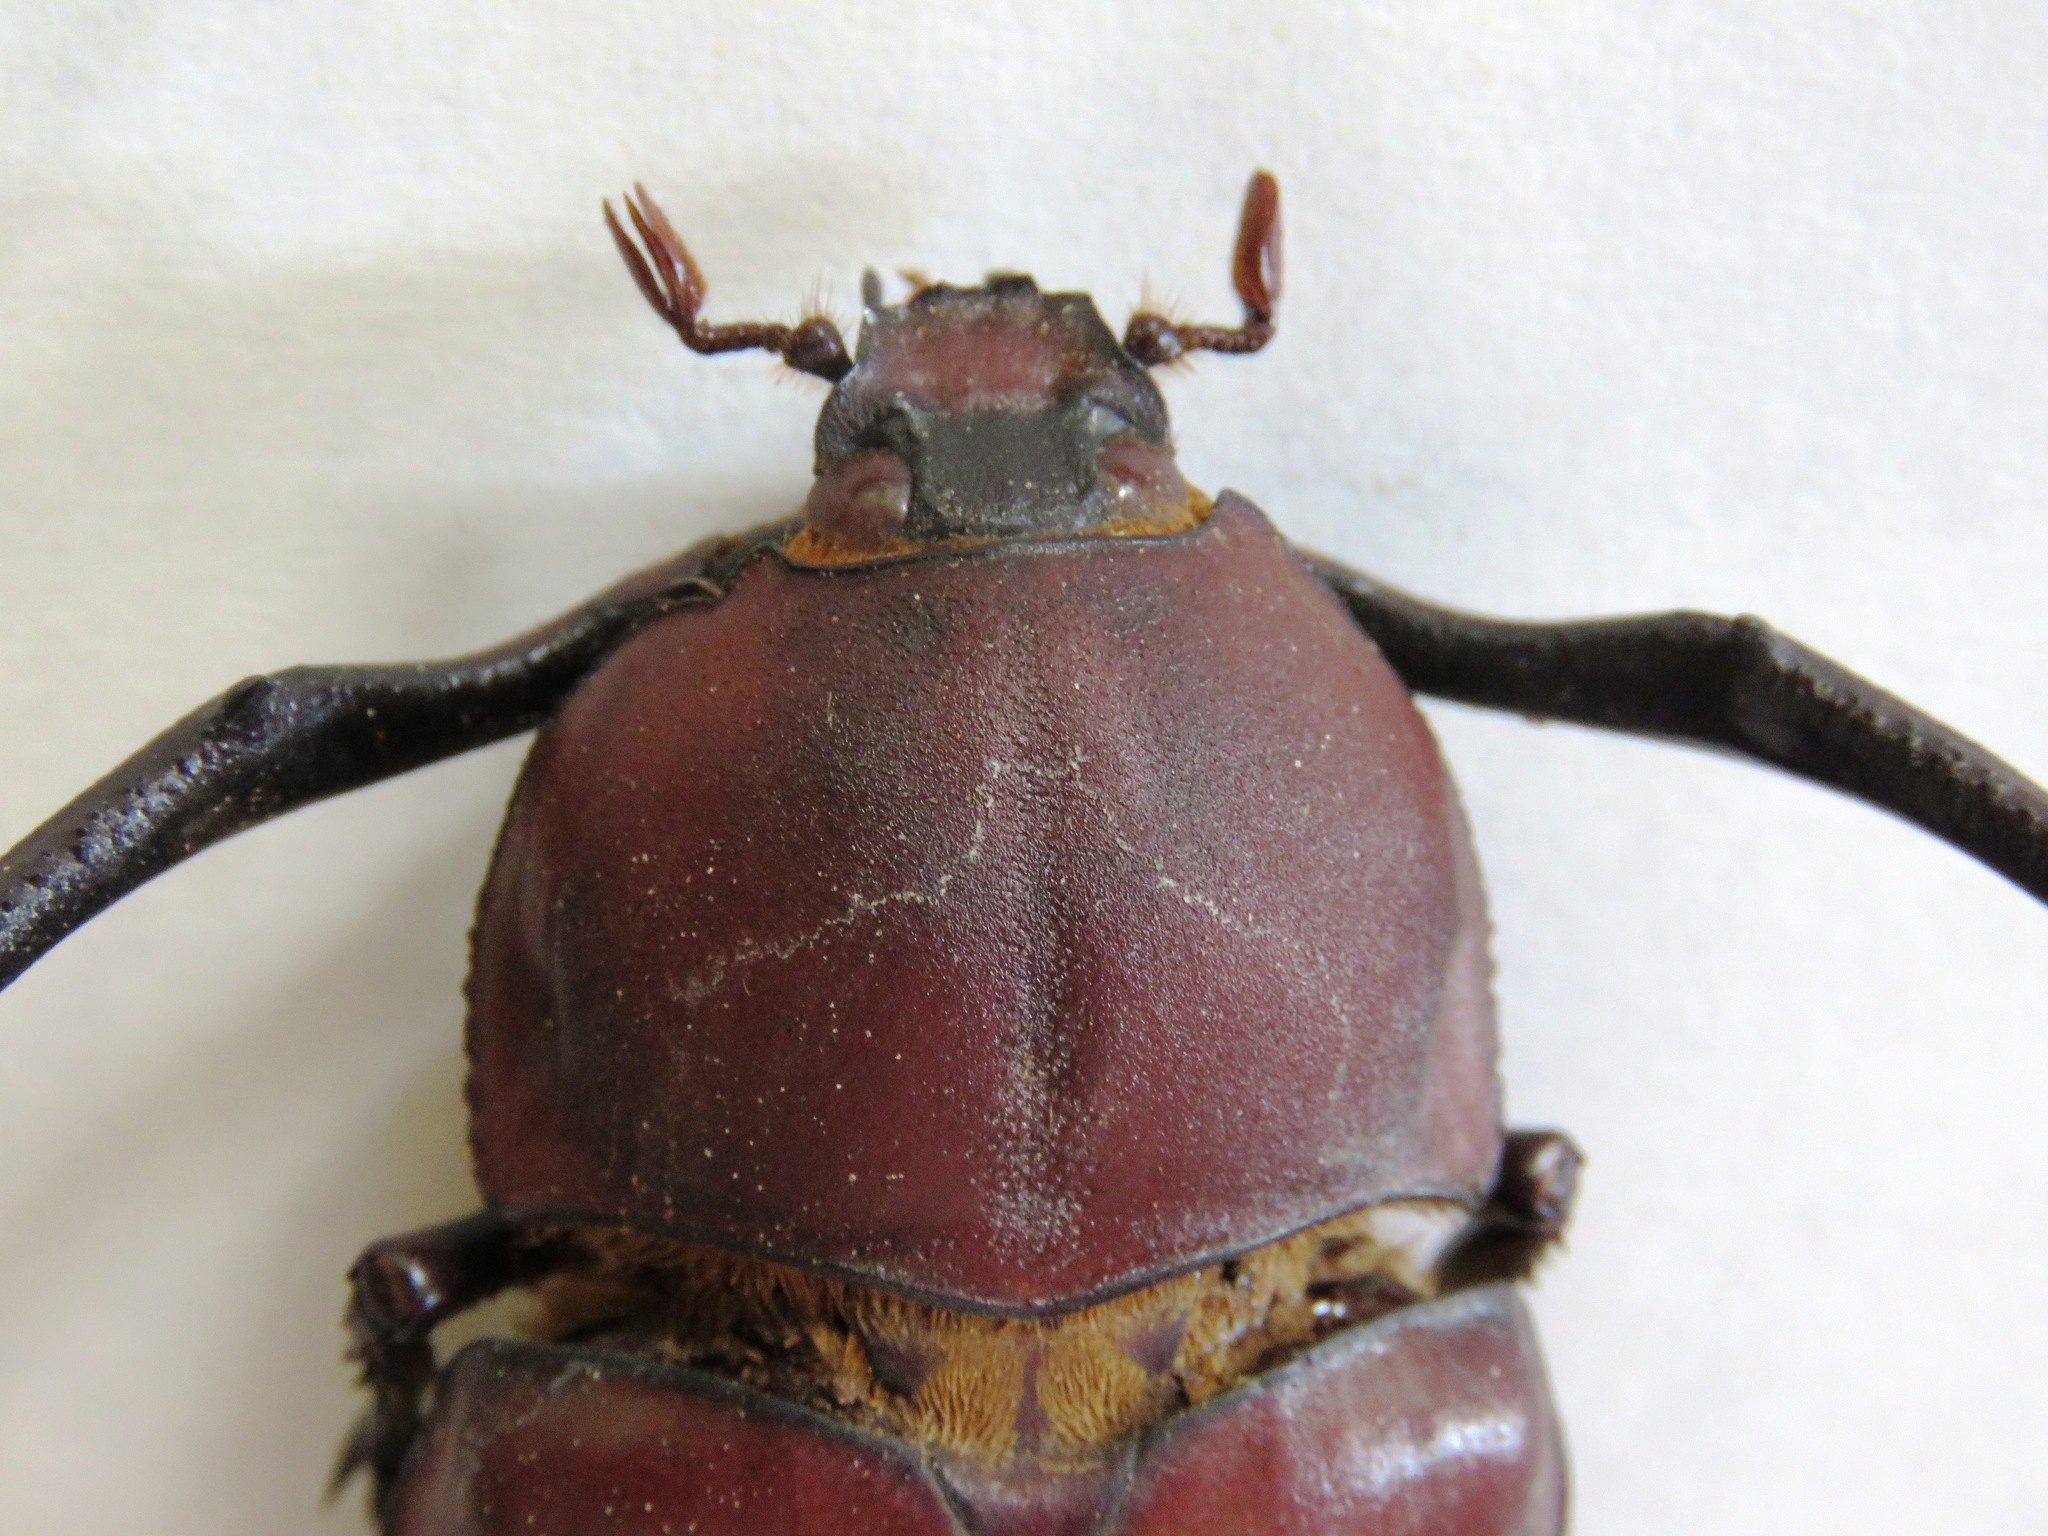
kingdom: Animalia
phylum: Arthropoda
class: Insecta
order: Coleoptera
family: Scarabaeidae
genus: Euchirus
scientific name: Euchirus longimanus
